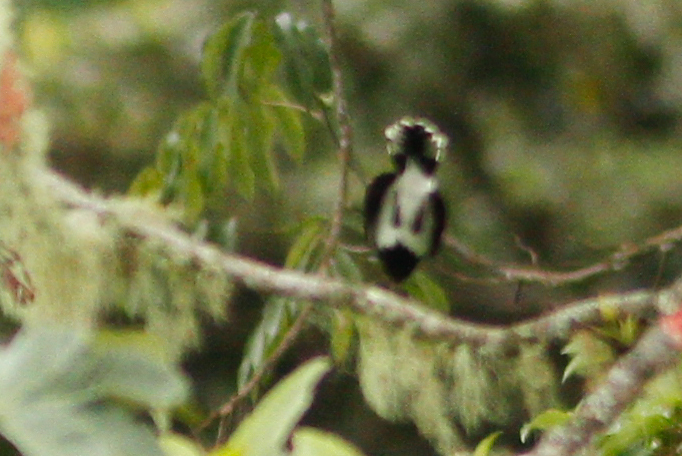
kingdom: Animalia
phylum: Chordata
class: Aves
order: Passeriformes
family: Thraupidae
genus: Cissopis
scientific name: Cissopis leverianus
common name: Magpie tanager
